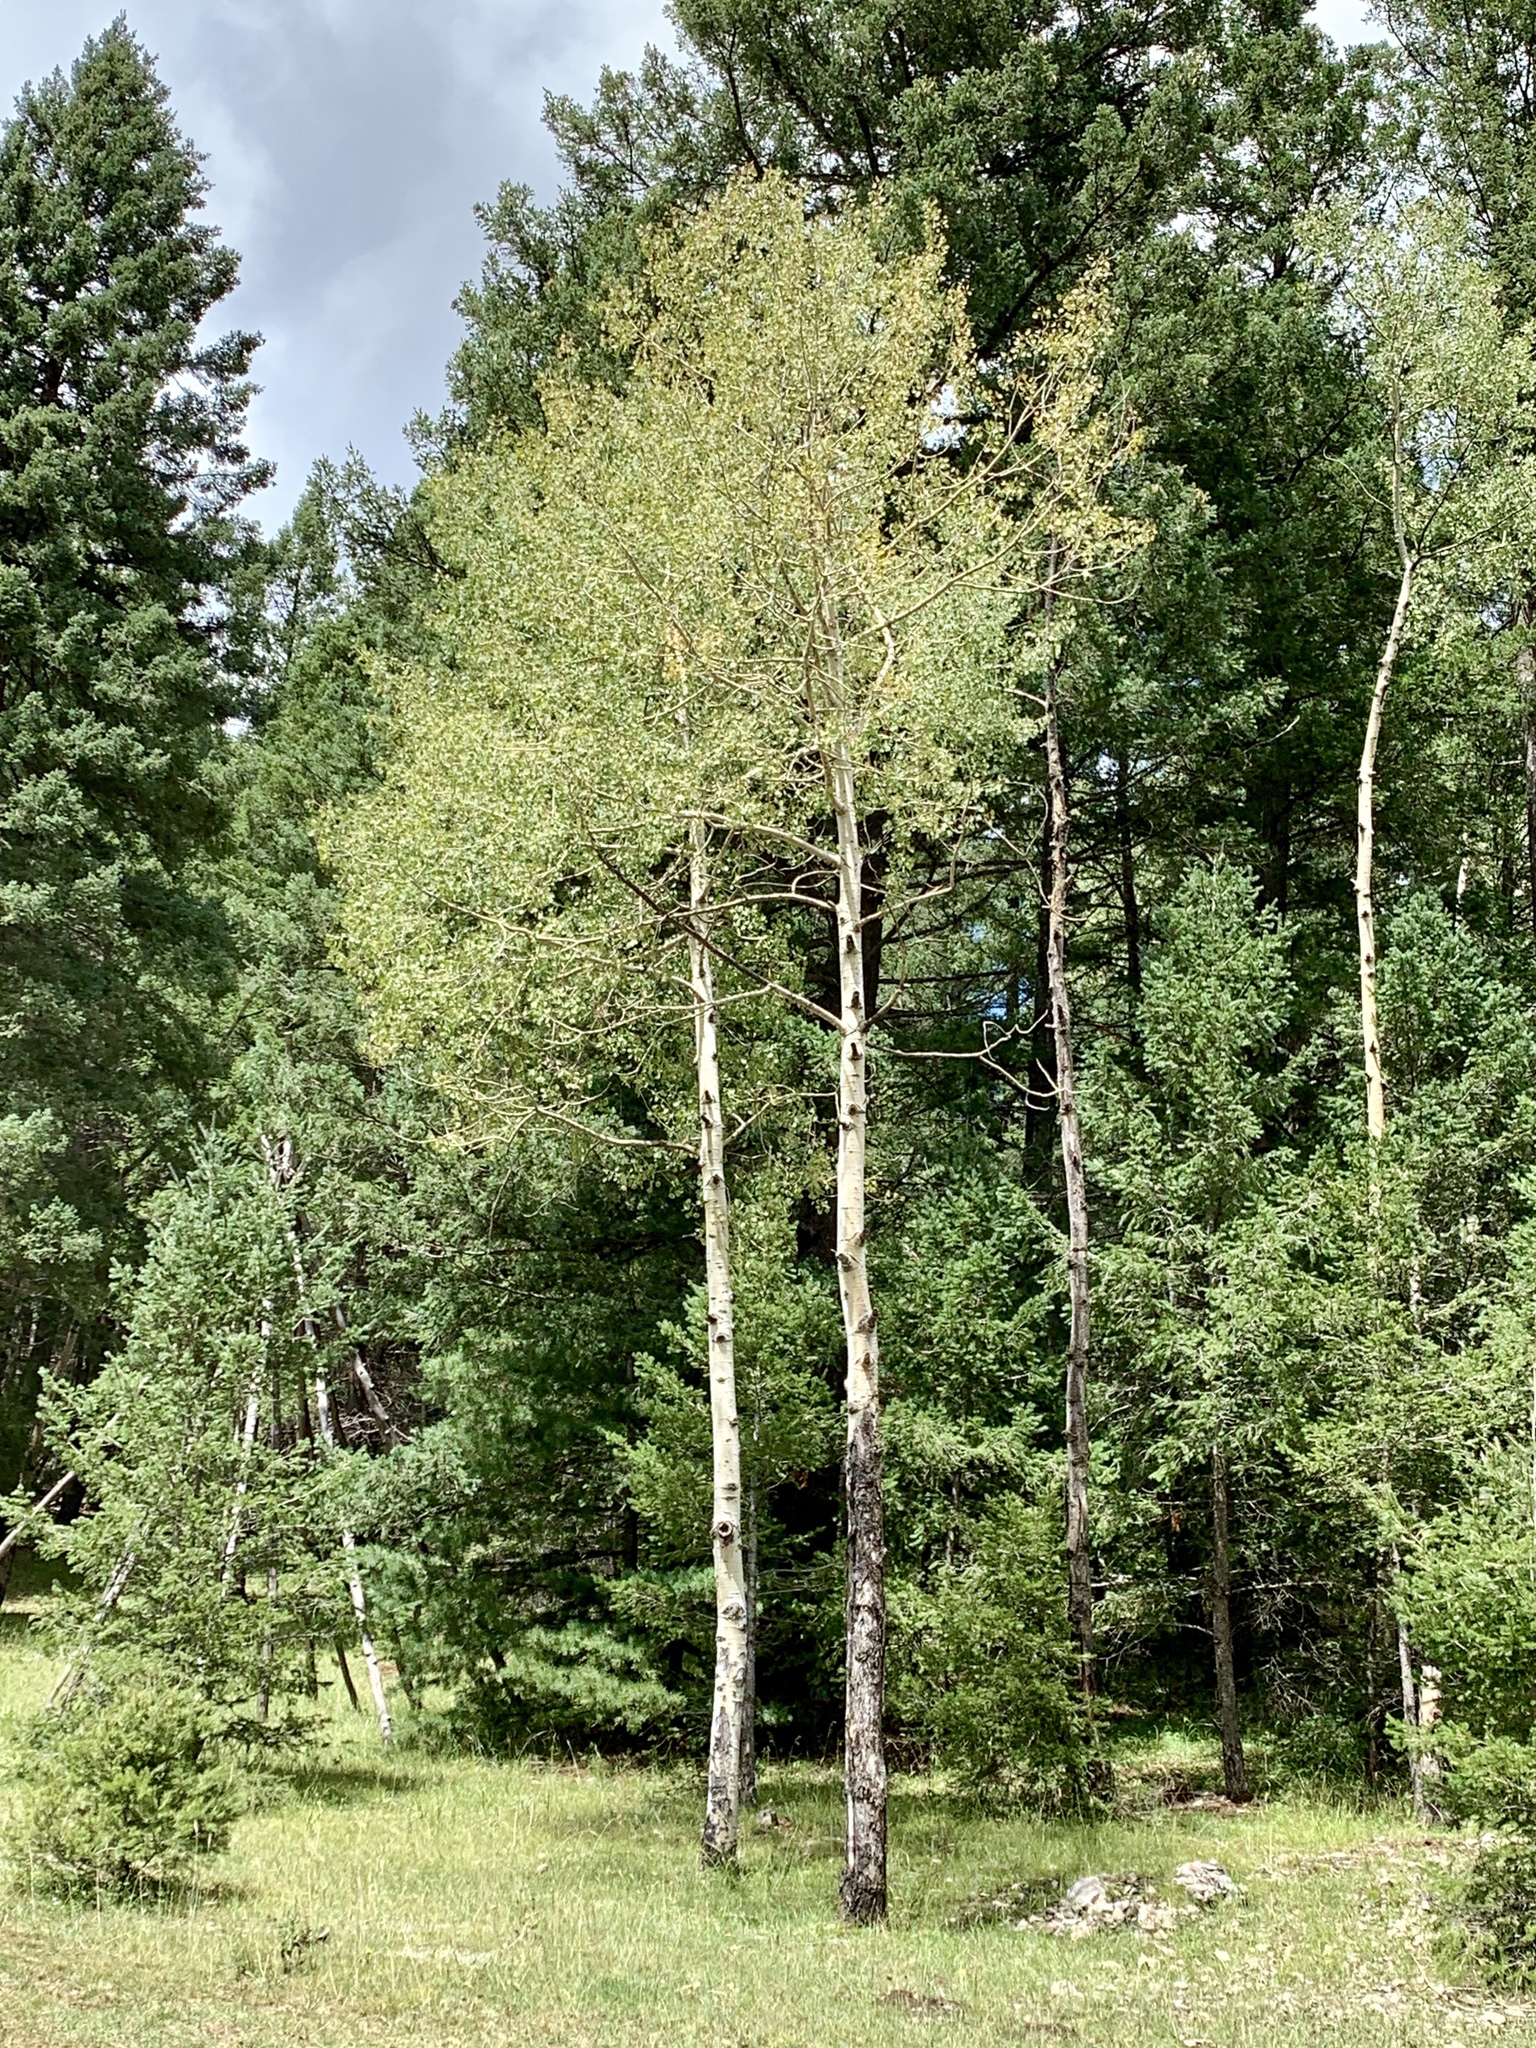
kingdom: Plantae
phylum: Tracheophyta
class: Magnoliopsida
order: Malpighiales
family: Salicaceae
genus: Populus
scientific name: Populus tremuloides
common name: Quaking aspen
